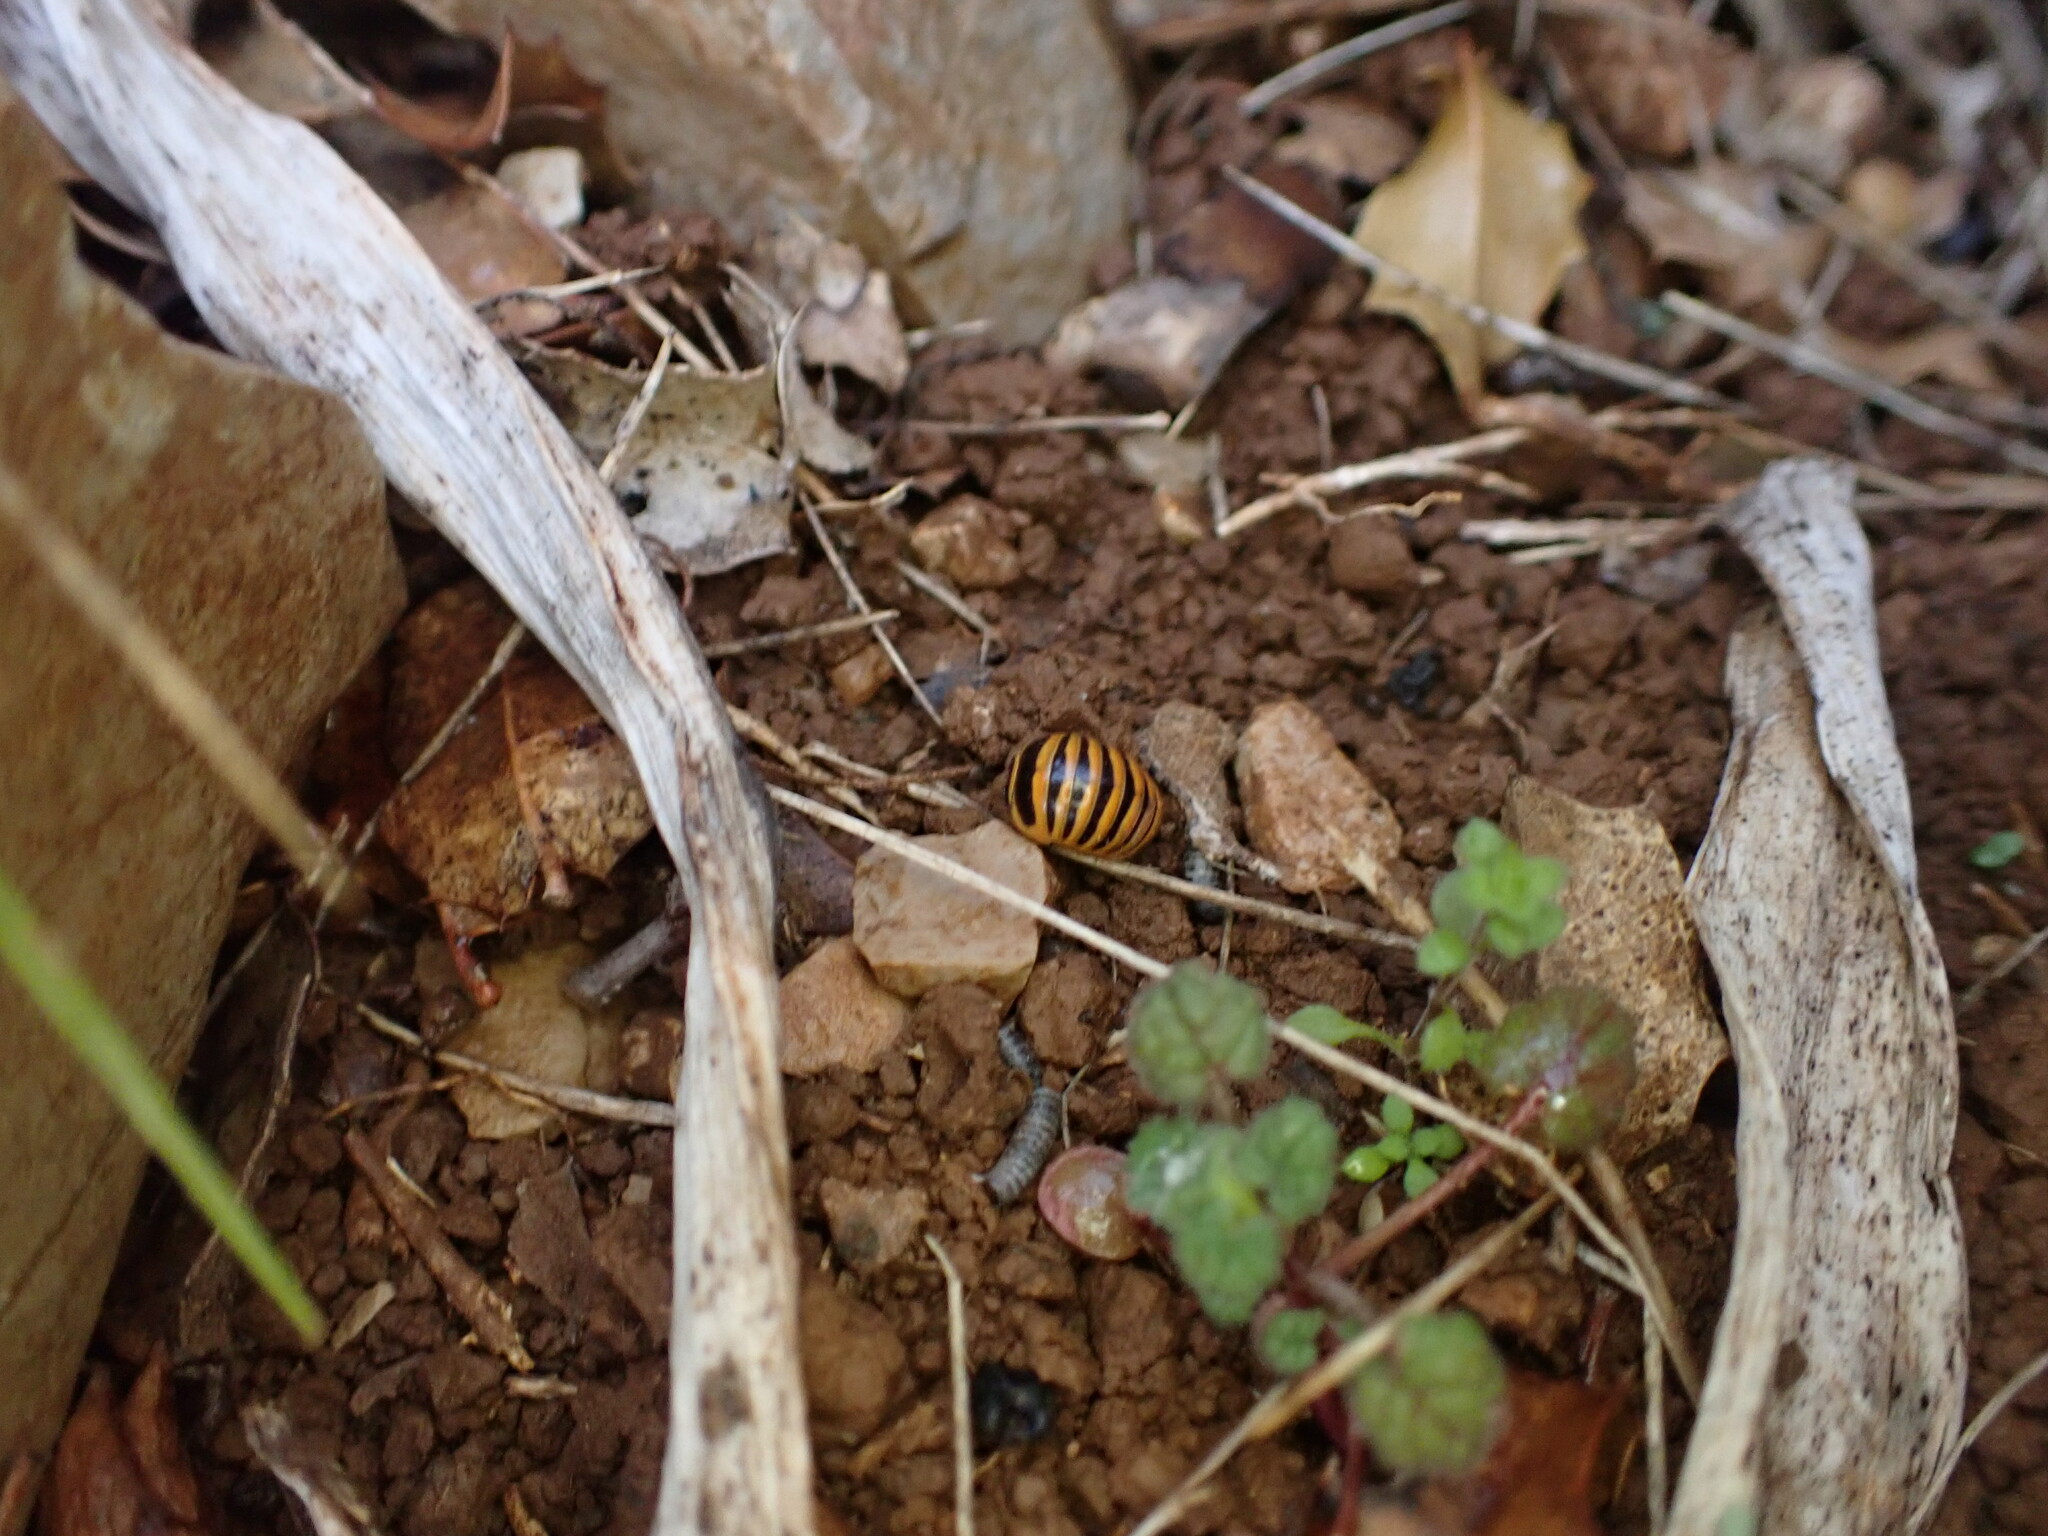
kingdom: Animalia
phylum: Arthropoda
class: Diplopoda
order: Glomerida
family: Glomeridae
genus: Glomeris
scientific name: Glomeris annulata
